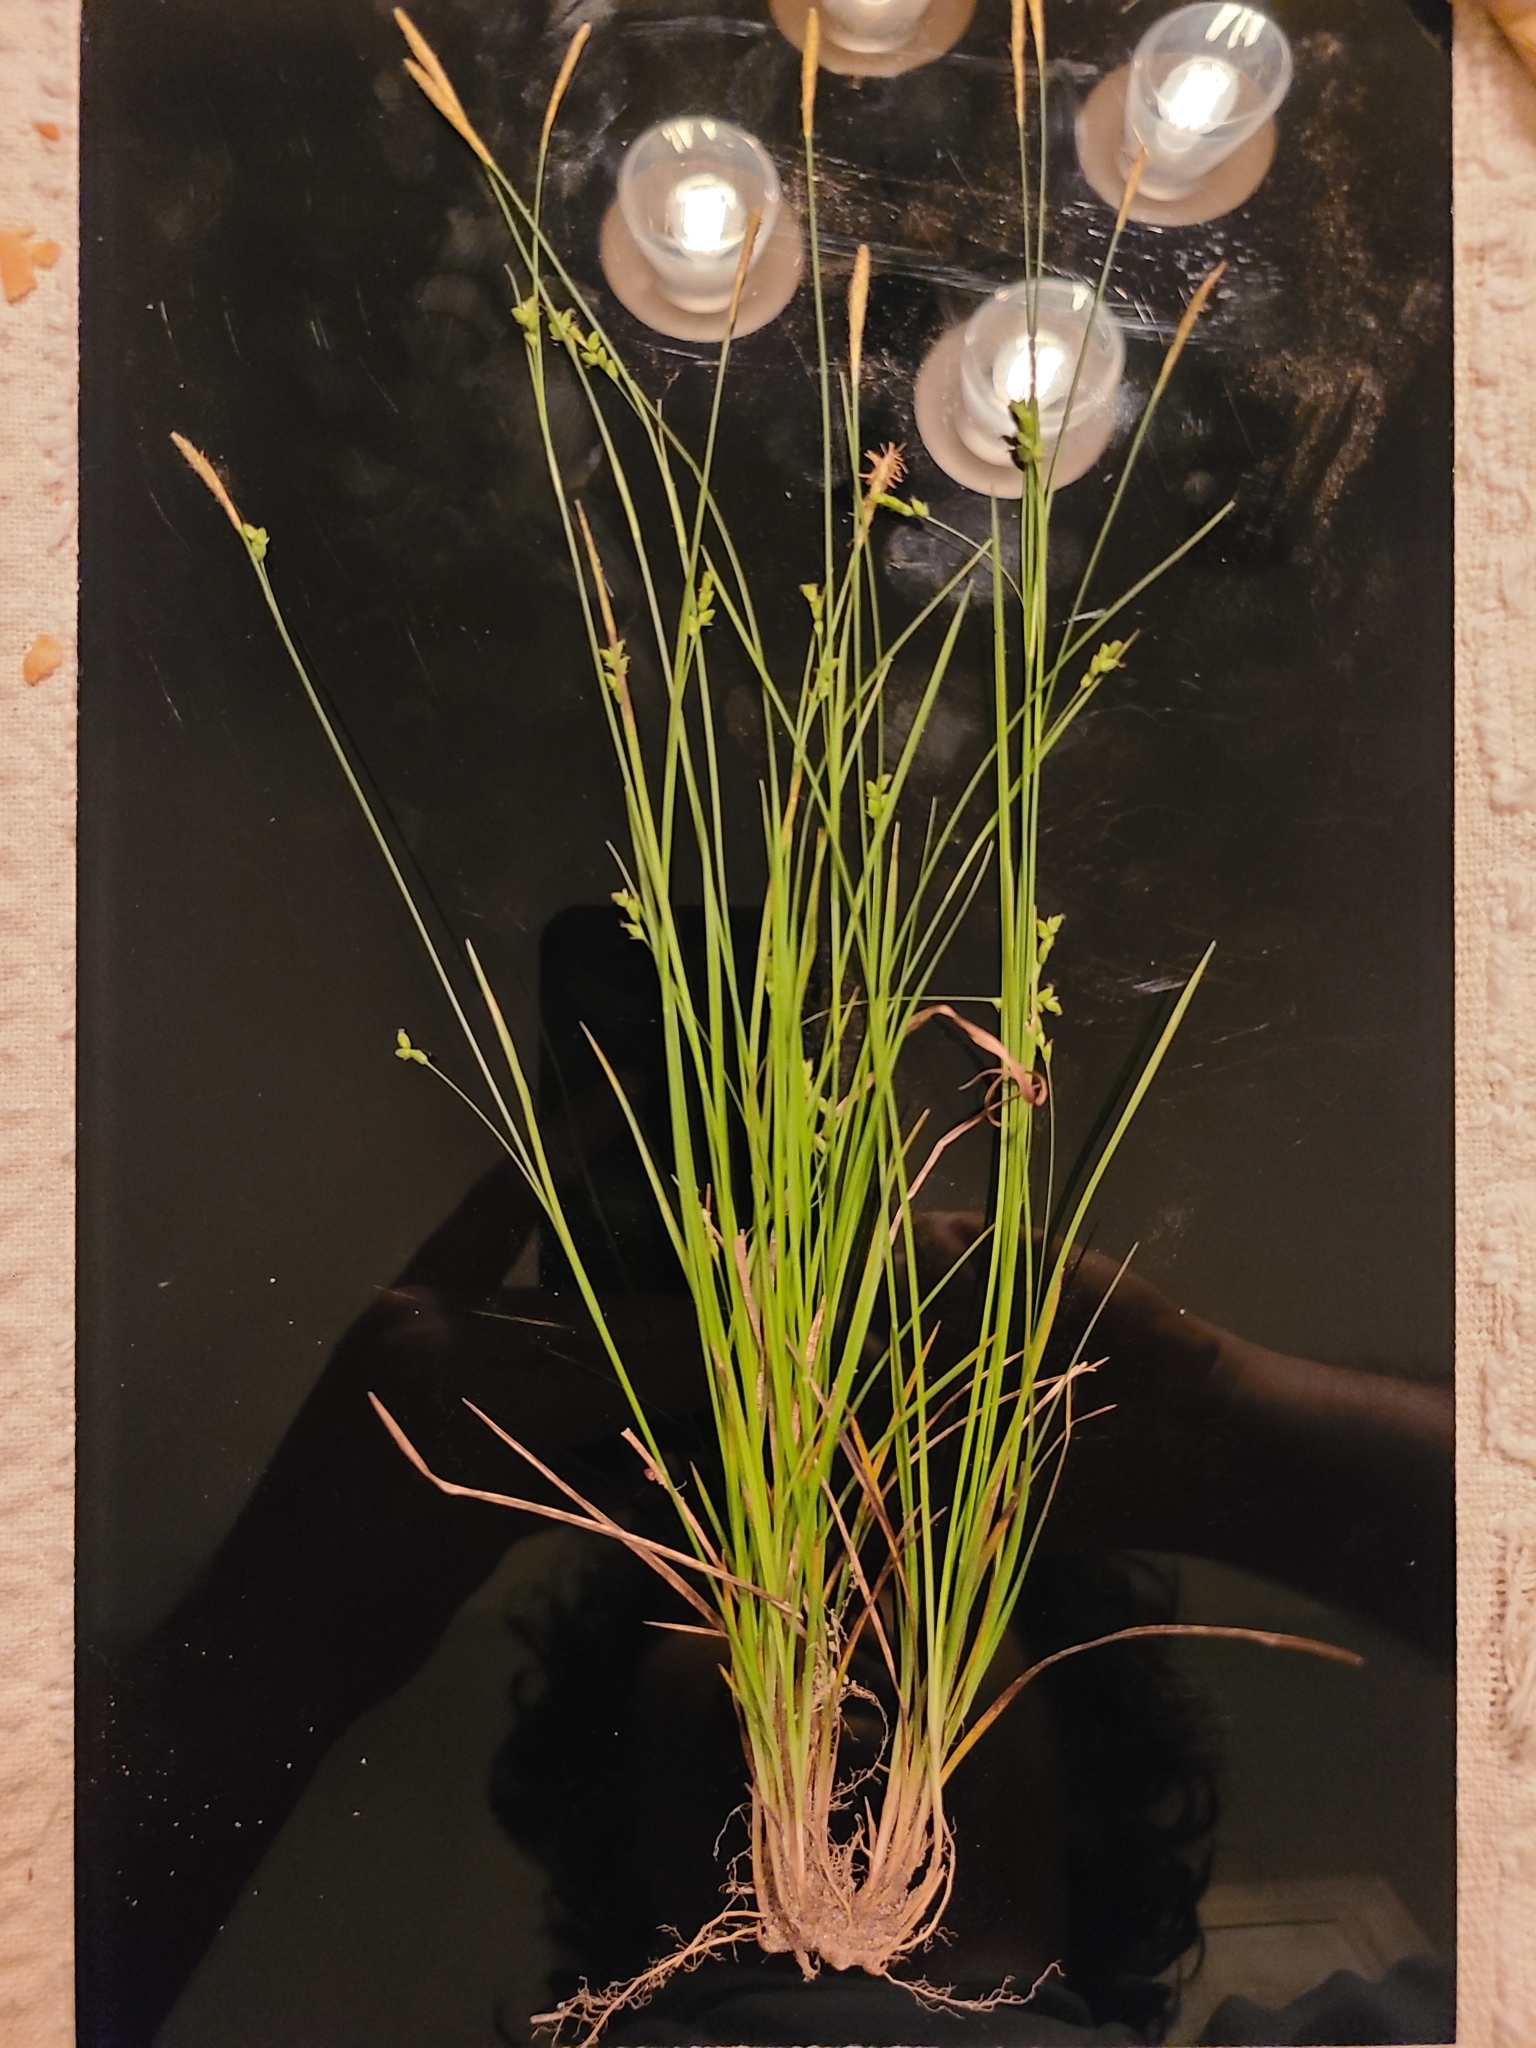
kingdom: Plantae
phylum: Tracheophyta
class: Liliopsida
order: Poales
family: Cyperaceae
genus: Carex
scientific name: Carex digitalis
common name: Slender wood sedge
